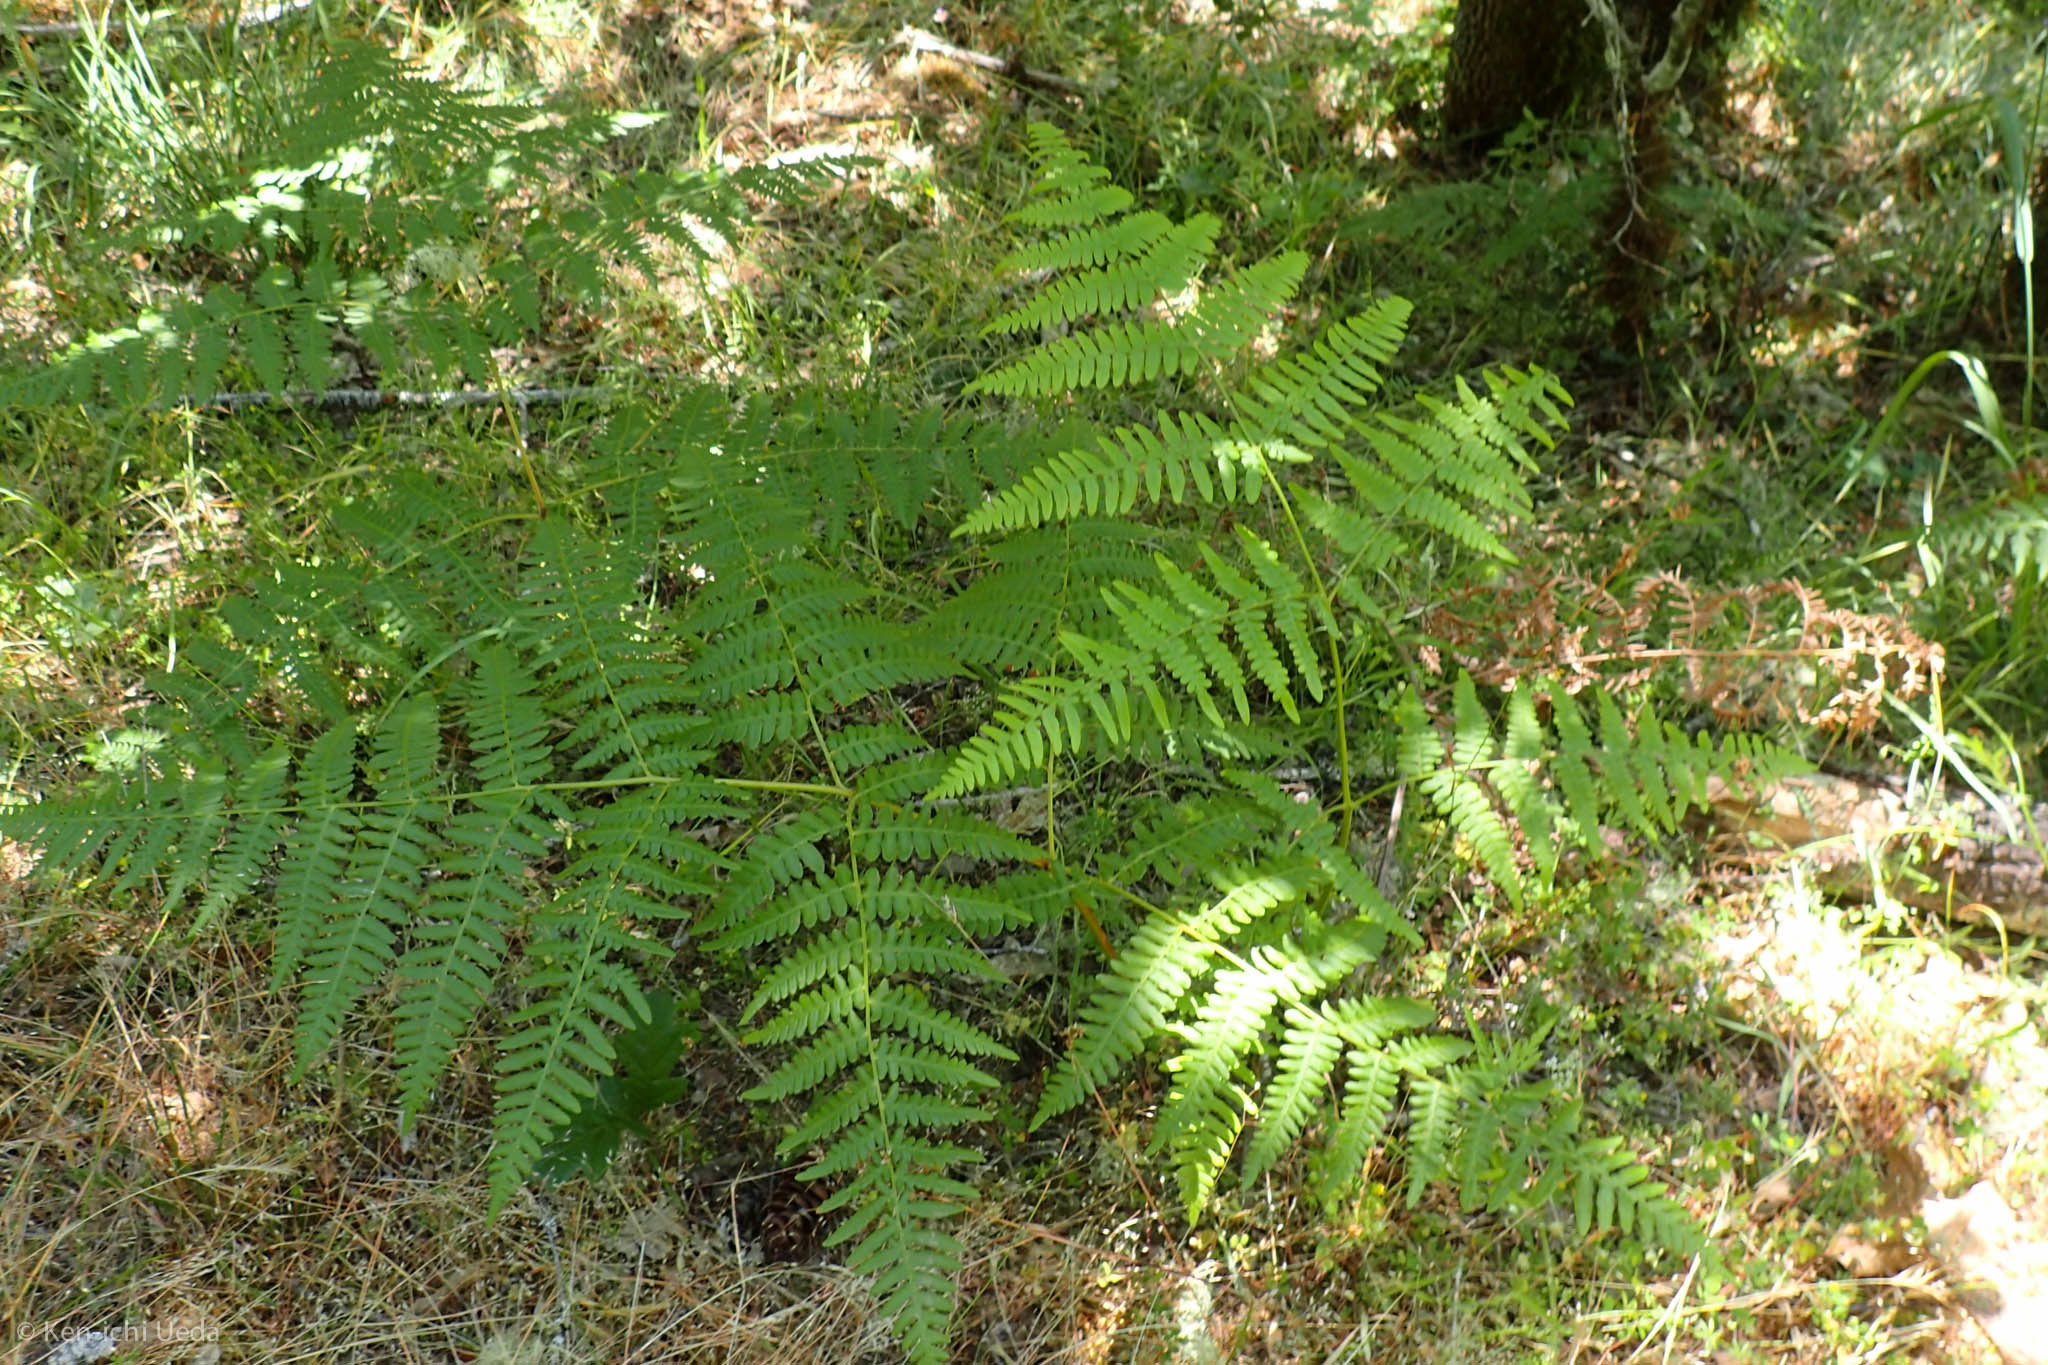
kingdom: Plantae
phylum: Tracheophyta
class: Polypodiopsida
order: Polypodiales
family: Dennstaedtiaceae
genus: Pteridium
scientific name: Pteridium aquilinum
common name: Bracken
